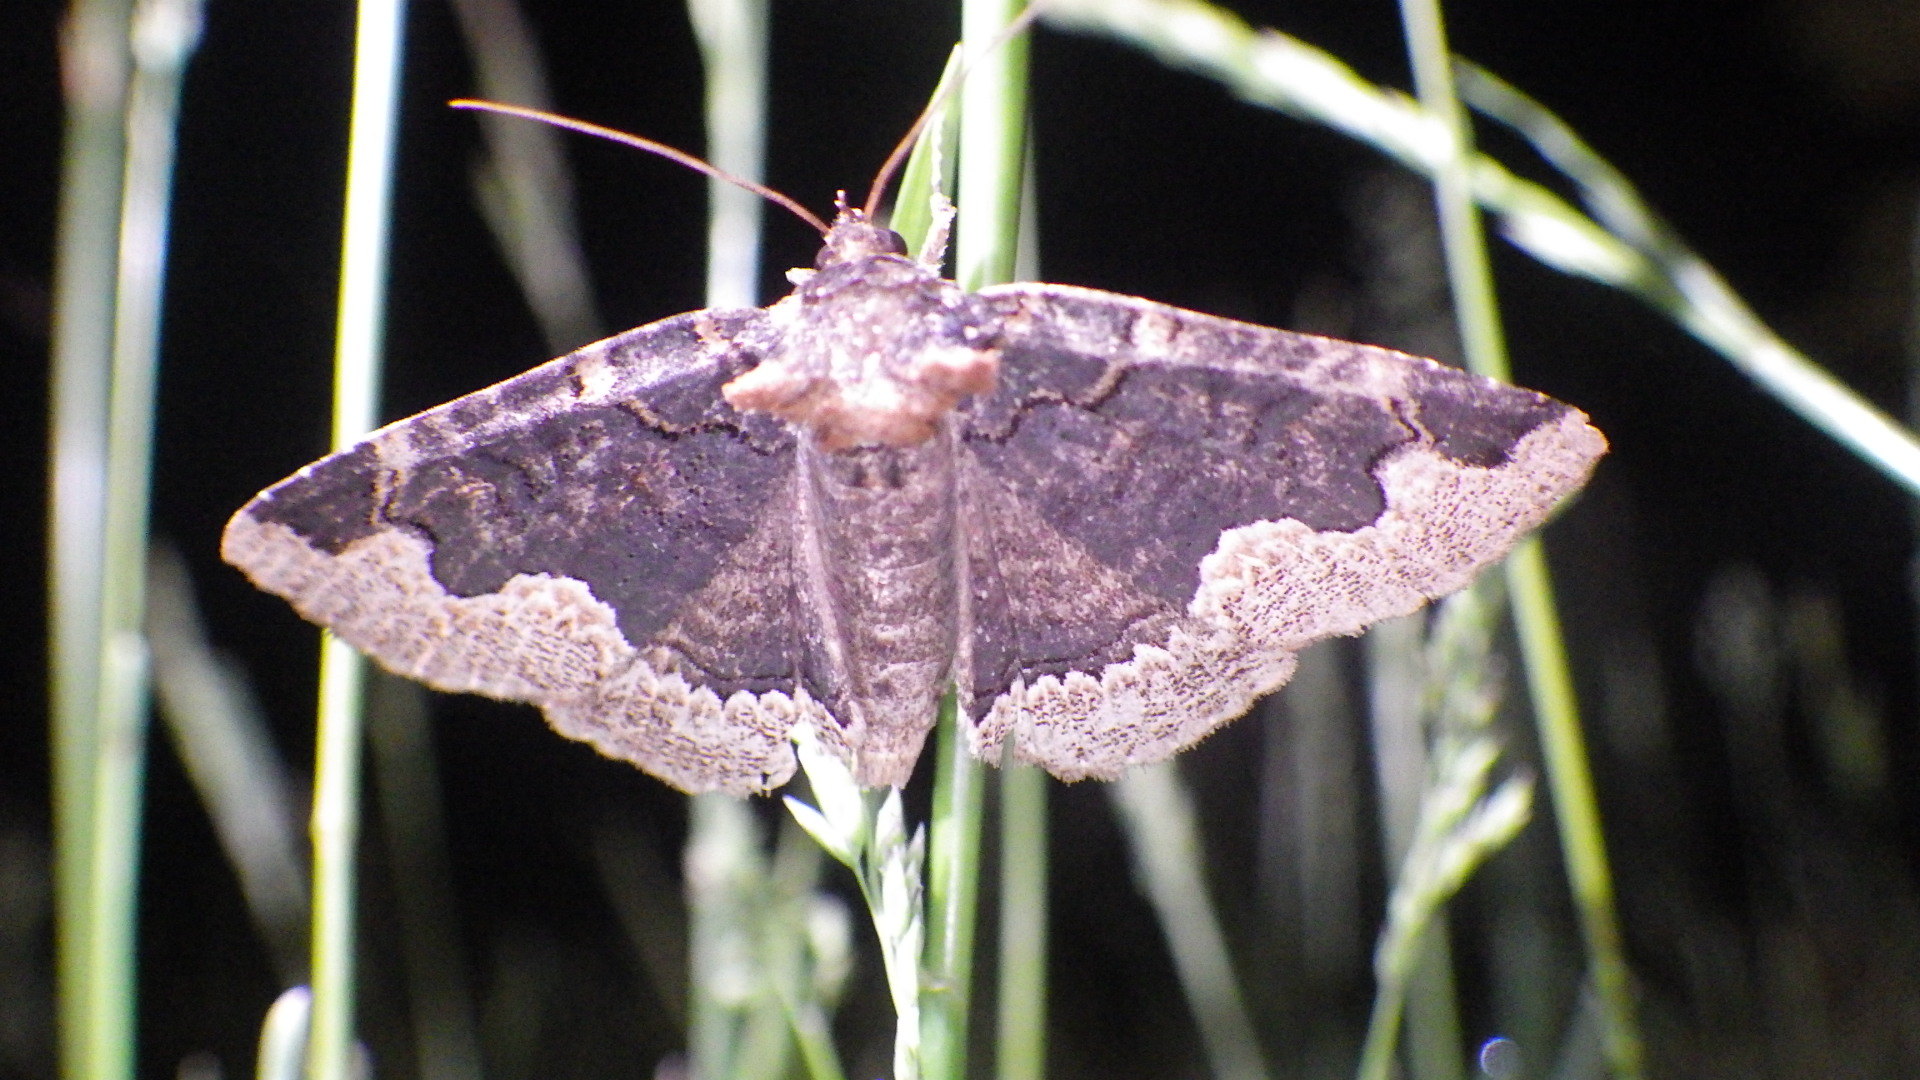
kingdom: Animalia
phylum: Arthropoda
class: Insecta
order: Lepidoptera
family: Erebidae
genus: Zale
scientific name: Zale horrida
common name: Horrid zale moth
